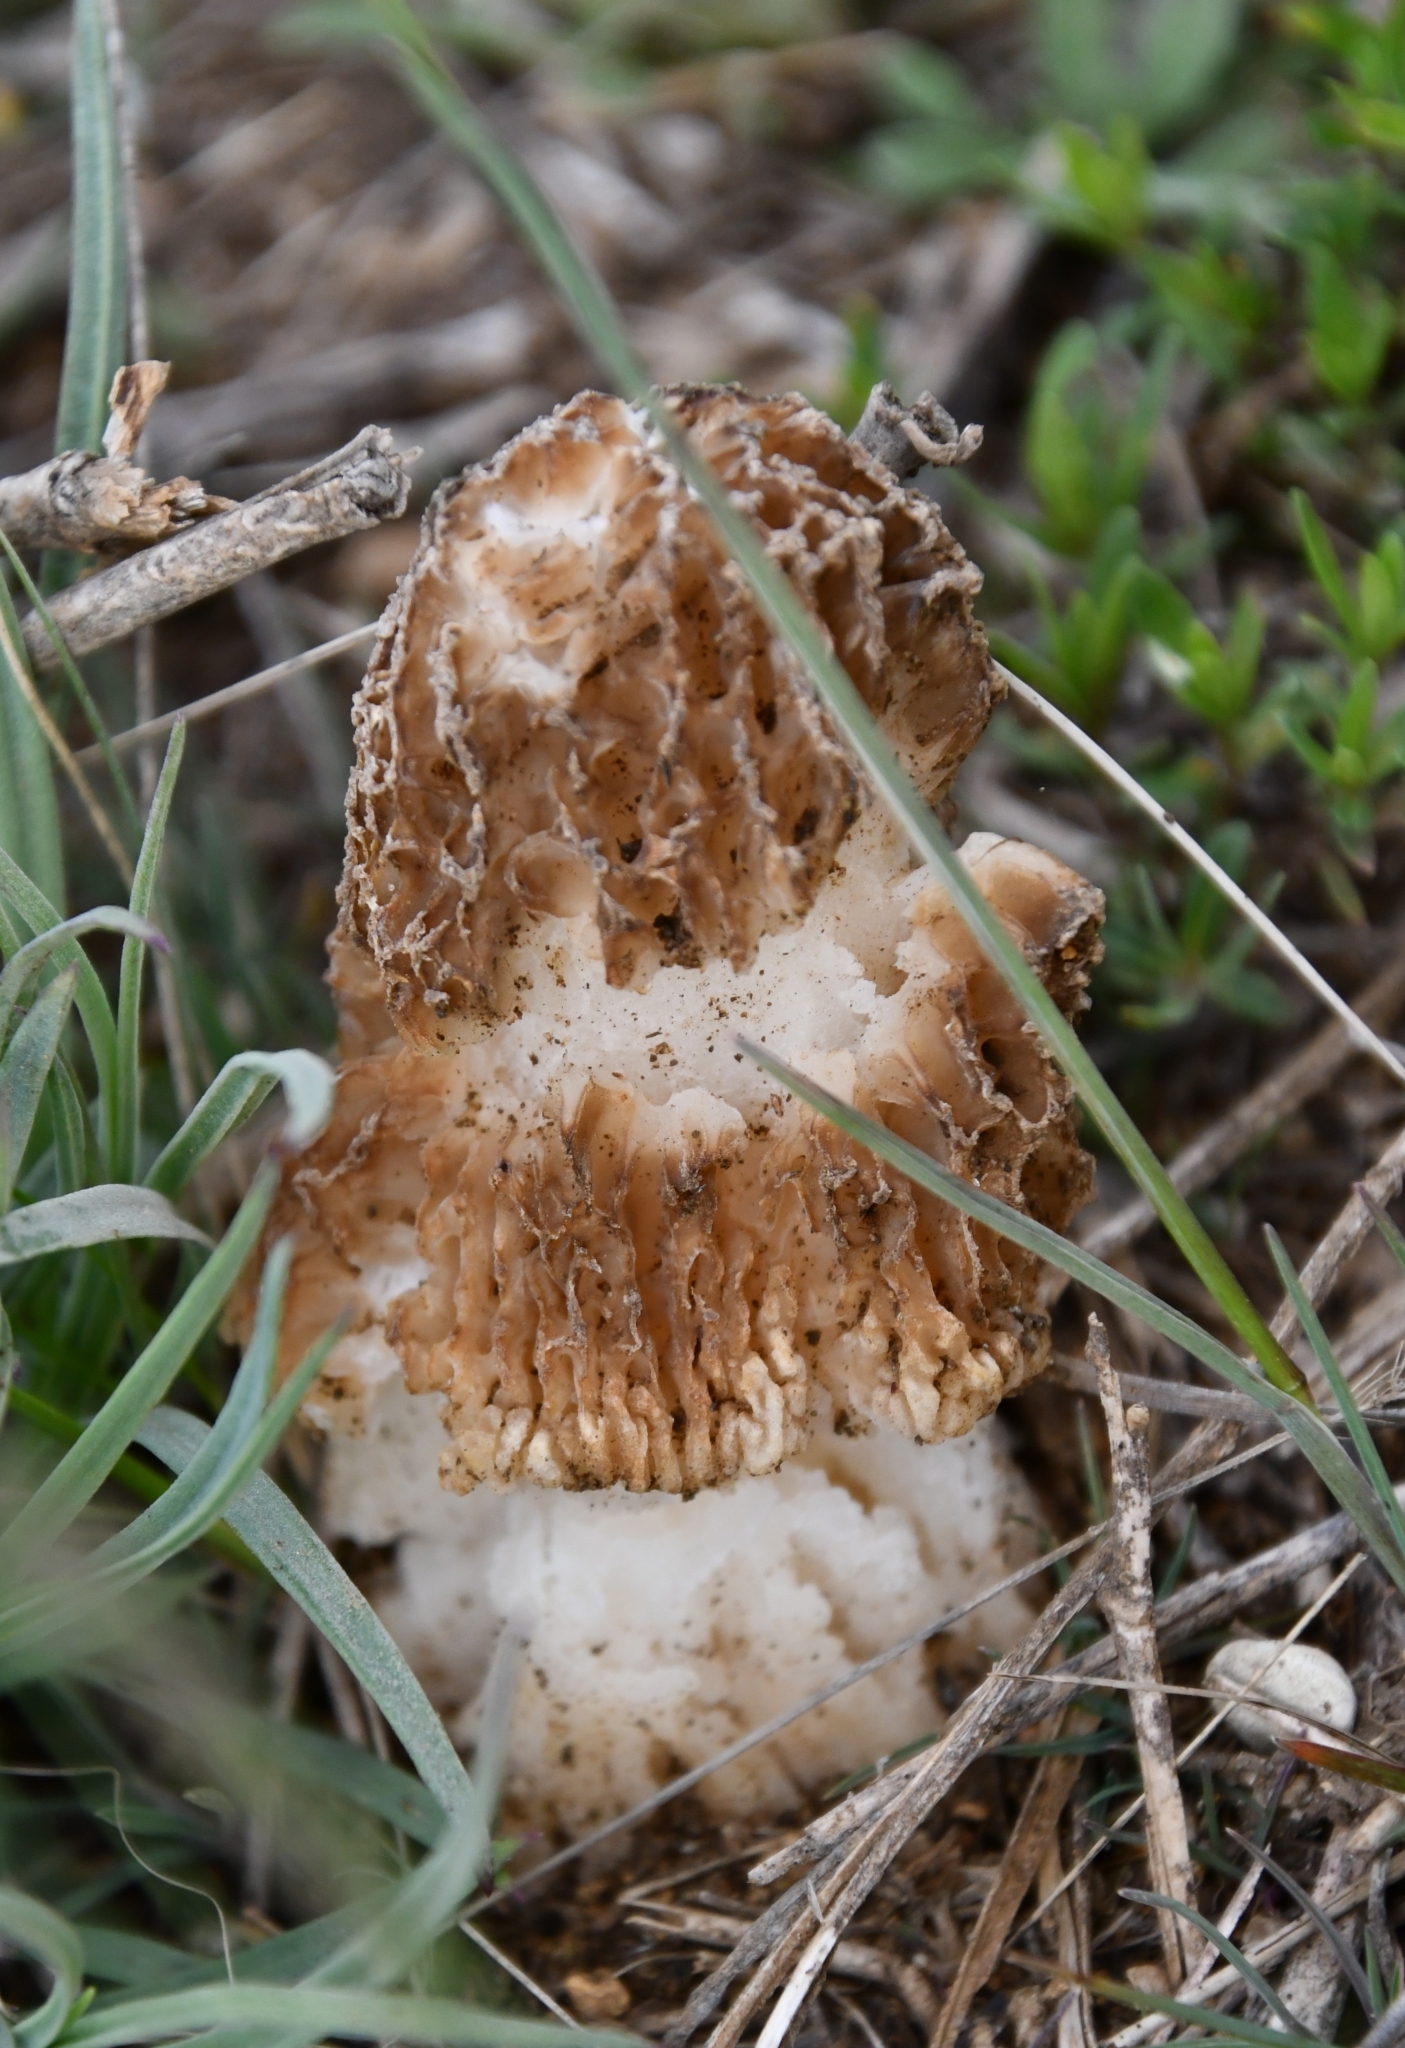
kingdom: Fungi
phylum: Ascomycota
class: Pezizomycetes
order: Pezizales
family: Morchellaceae
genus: Morchella
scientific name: Morchella steppicola
